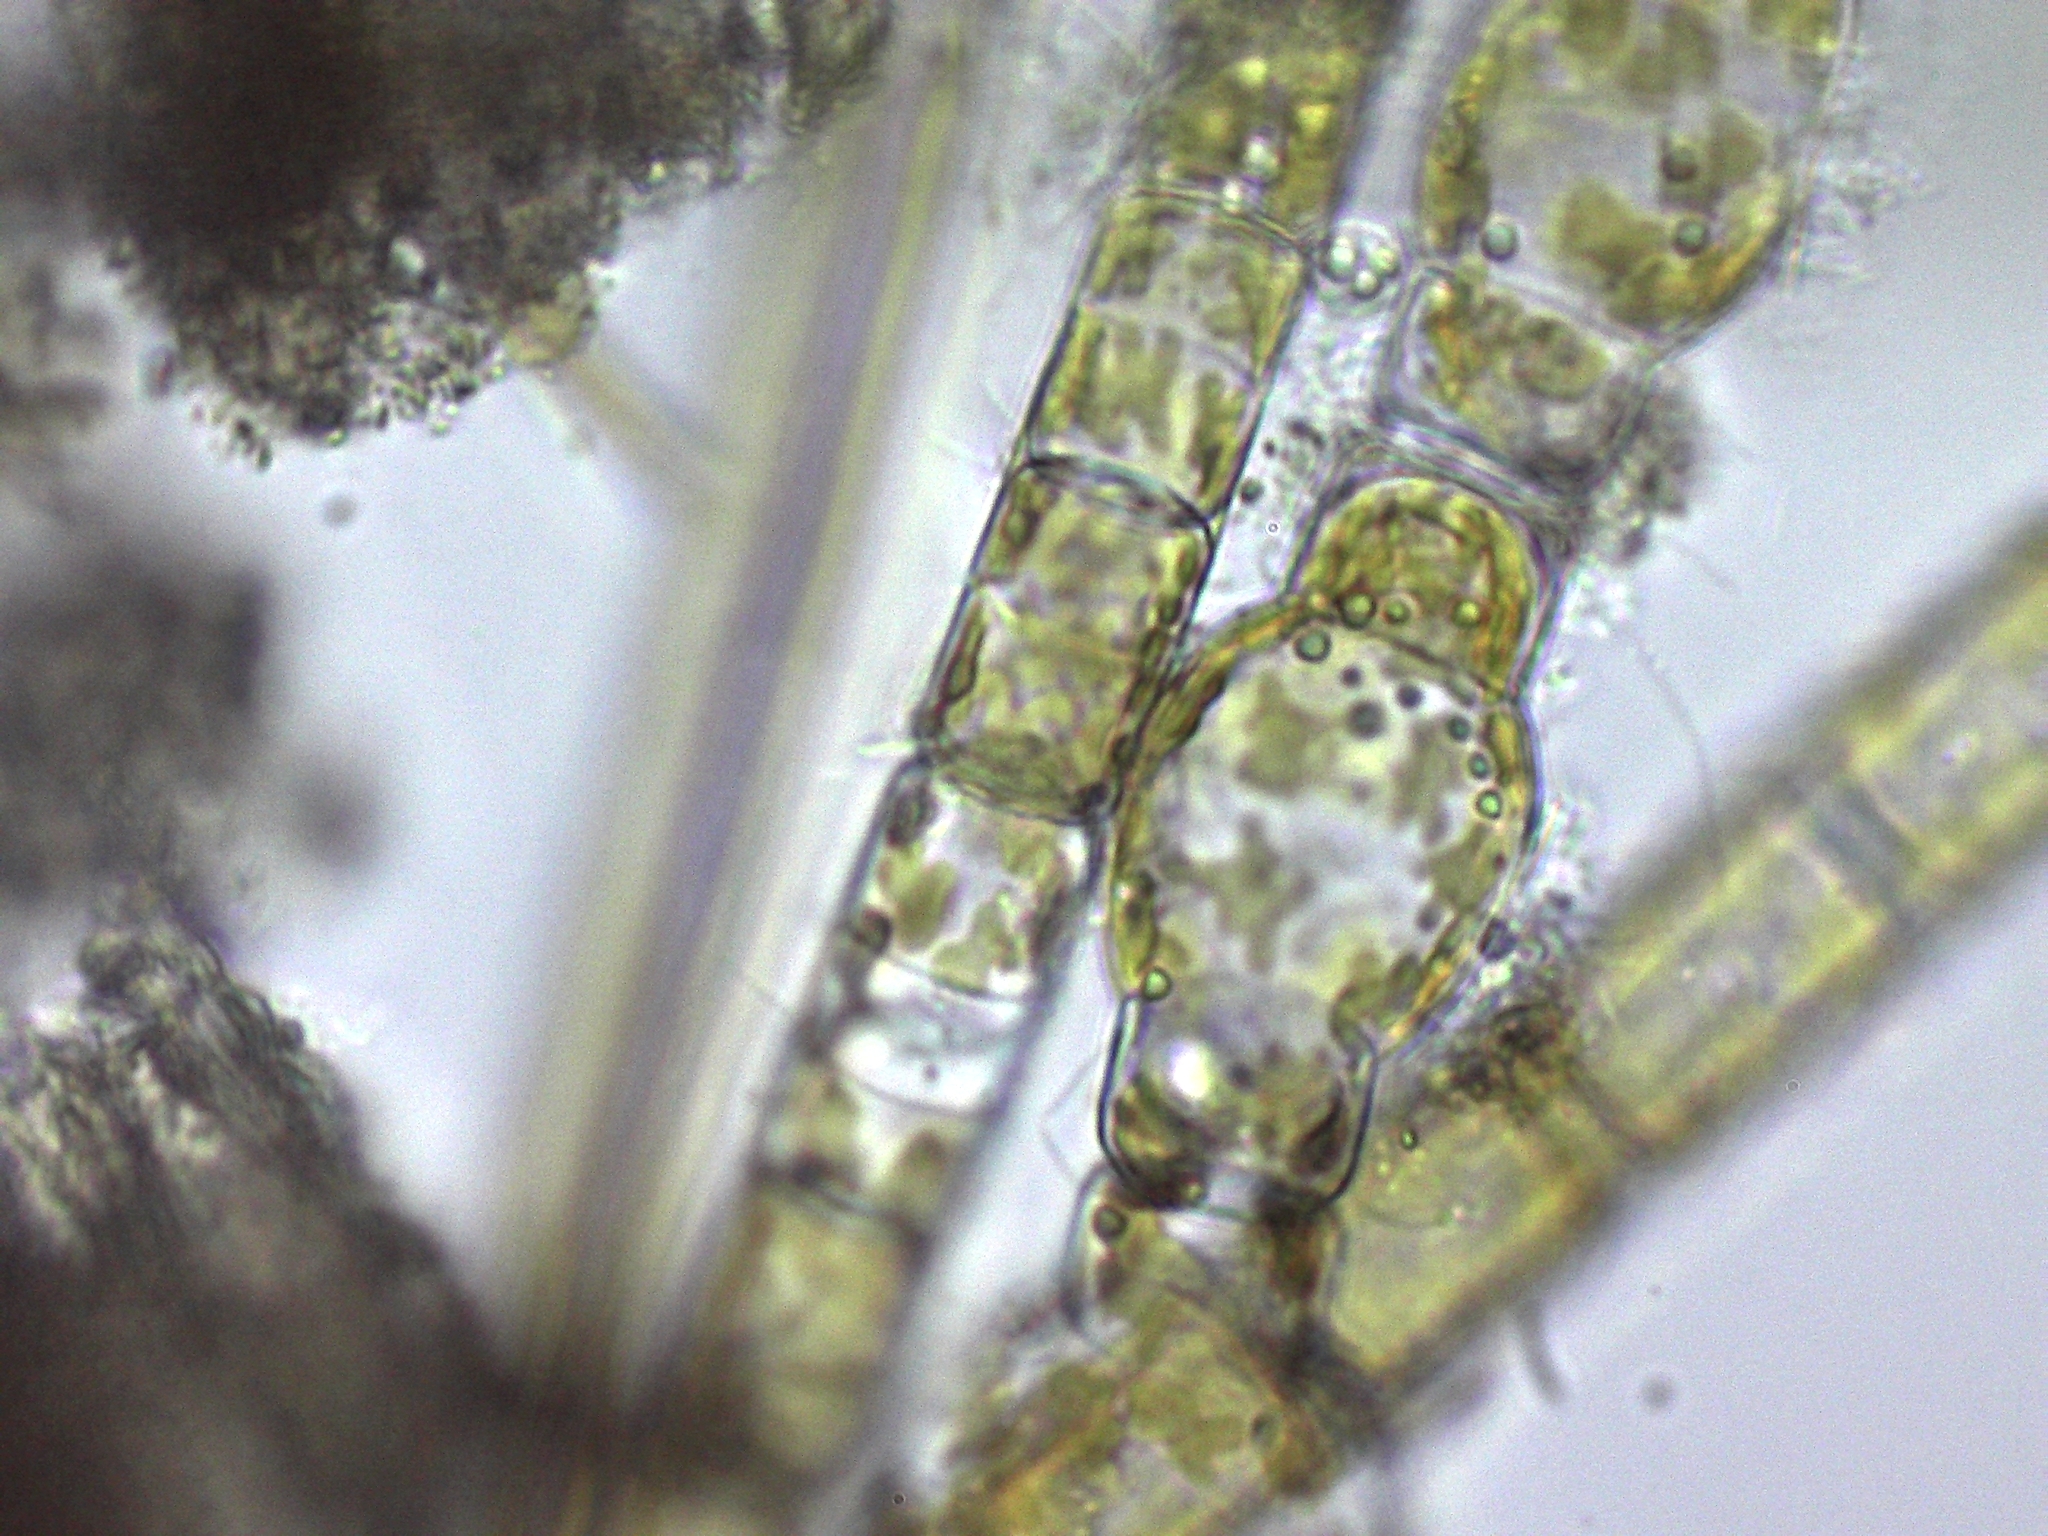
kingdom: Chromista
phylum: Ochrophyta
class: Bacillariophyceae
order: Melosirales
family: Melosiraceae
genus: Melosira
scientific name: Melosira varians
